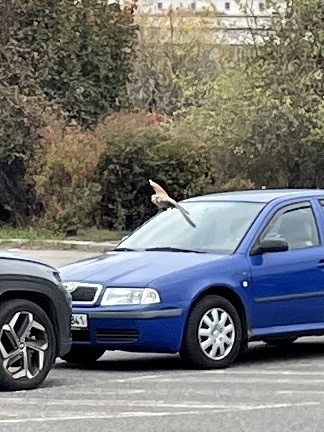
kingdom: Animalia
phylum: Chordata
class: Aves
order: Falconiformes
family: Falconidae
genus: Falco
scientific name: Falco tinnunculus
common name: Common kestrel
